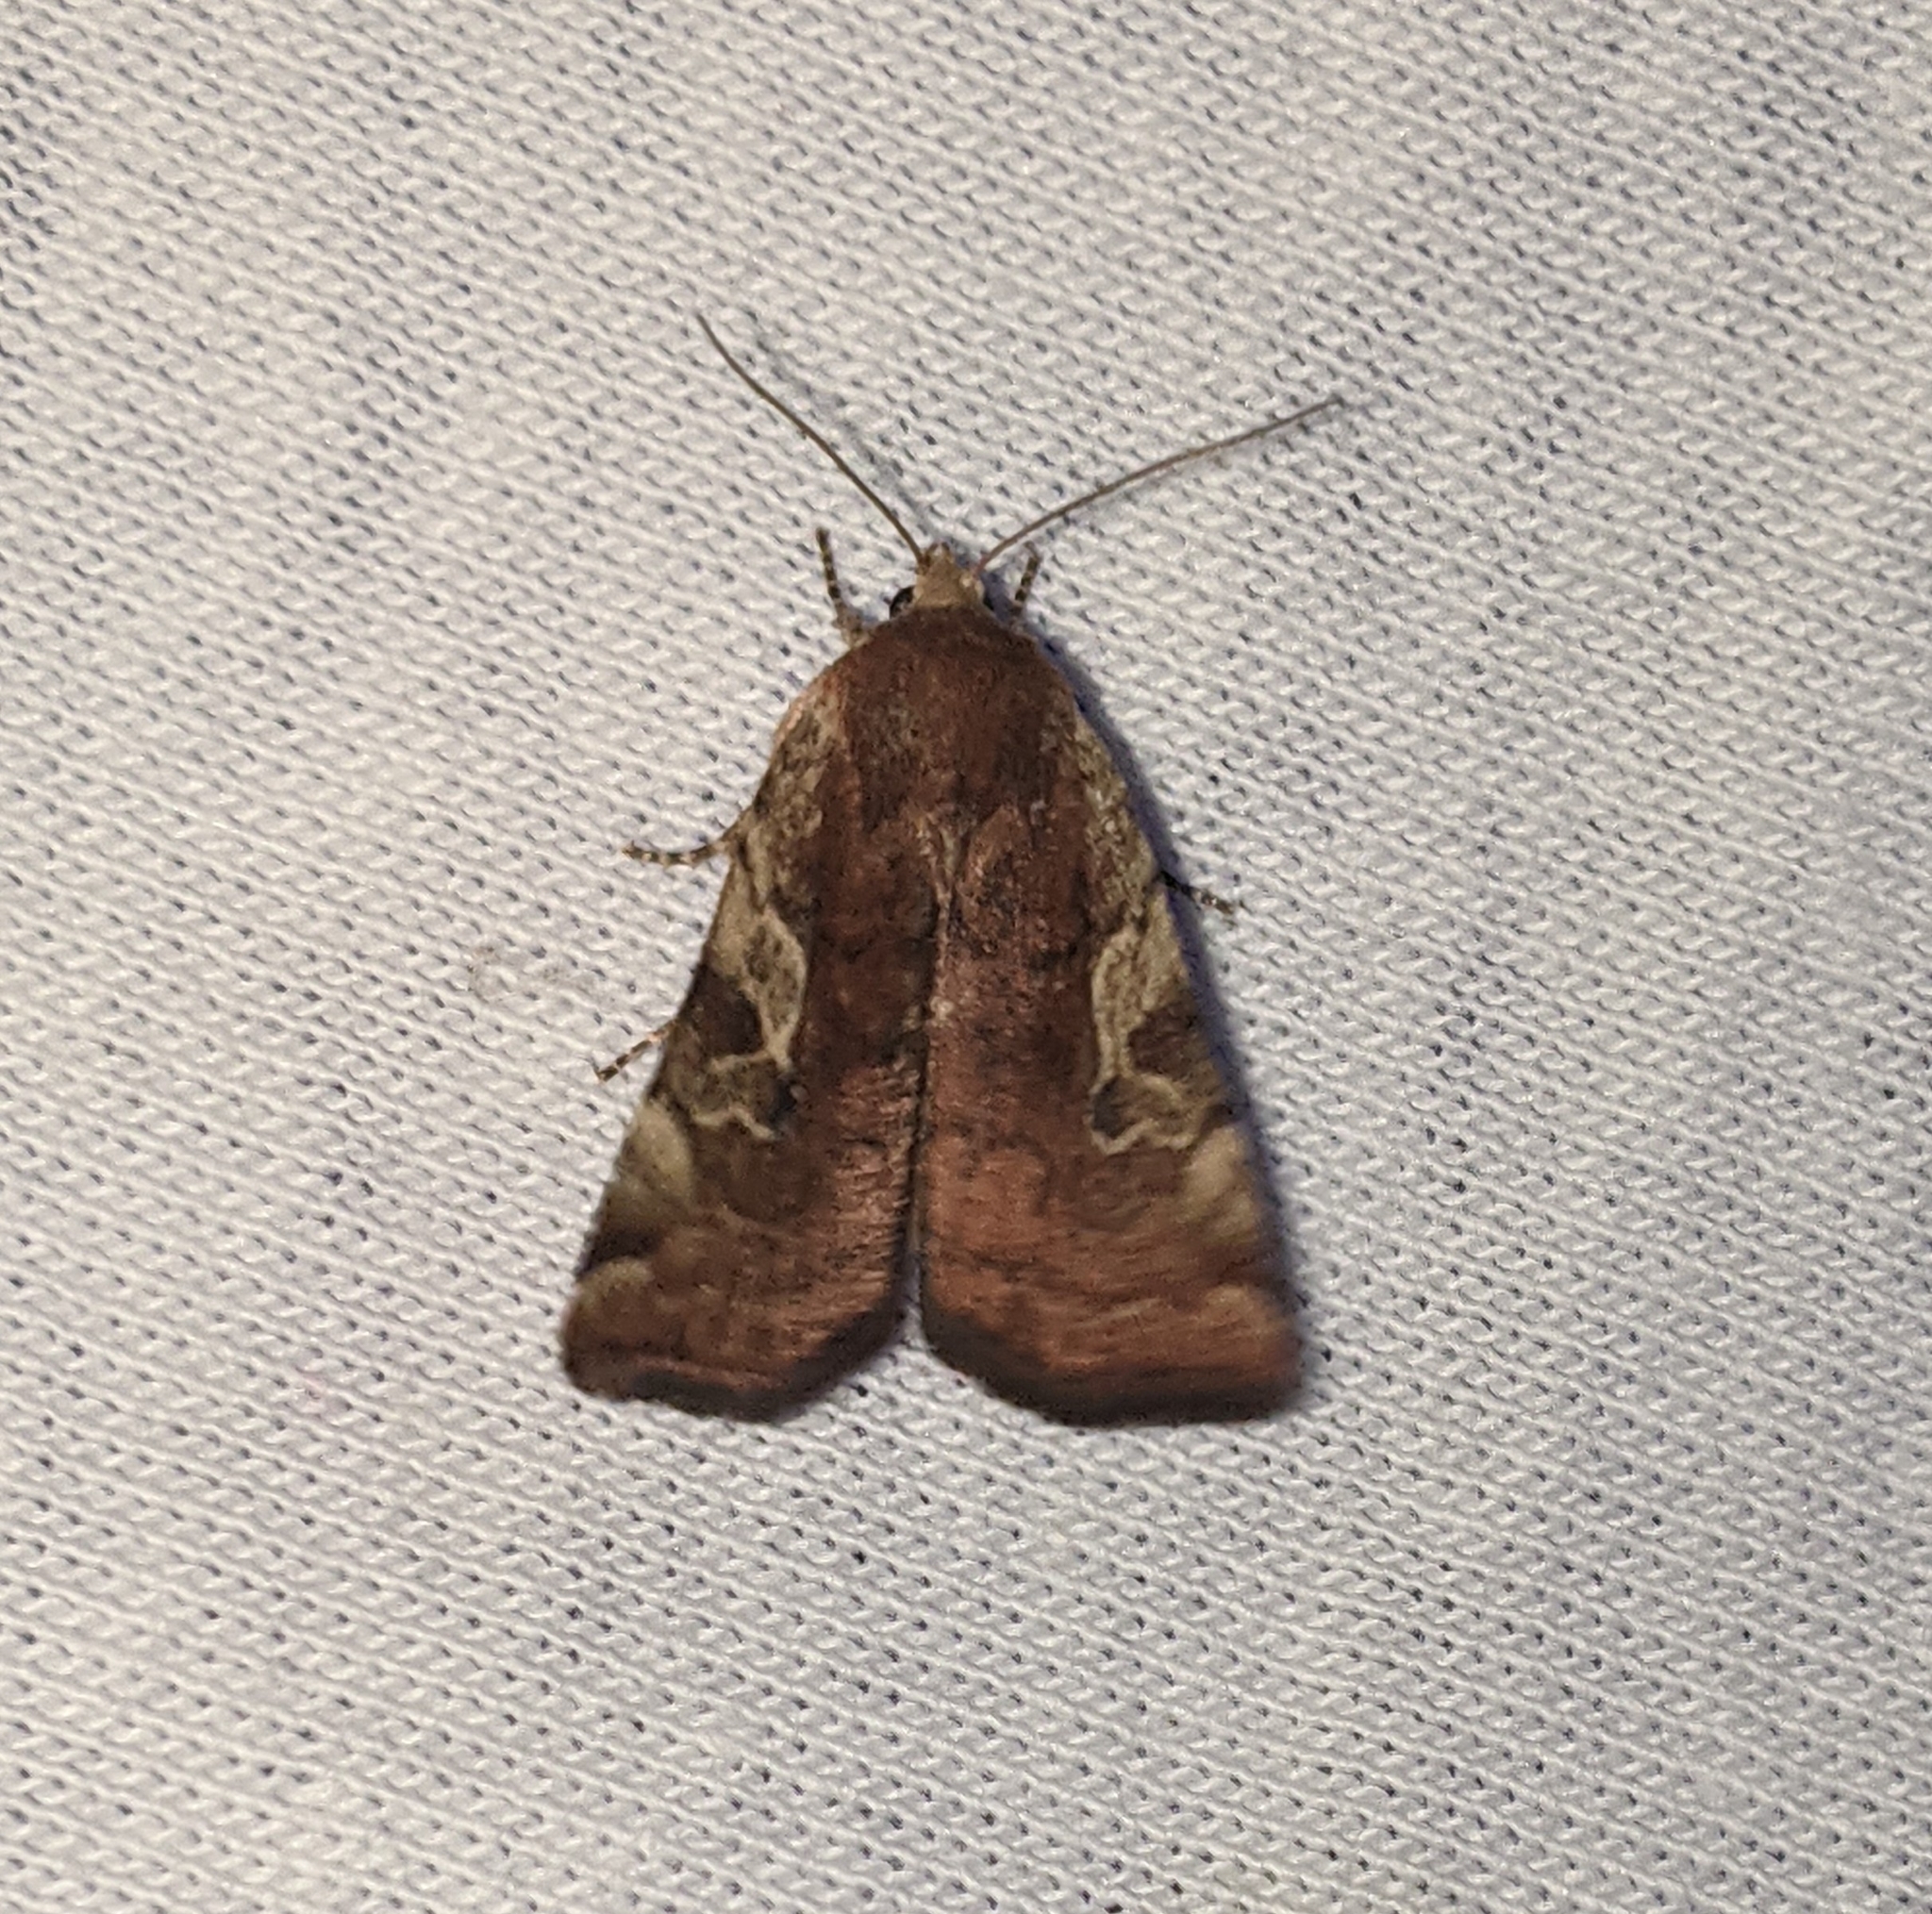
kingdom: Animalia
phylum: Arthropoda
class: Insecta
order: Lepidoptera
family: Noctuidae
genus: Cryptocala
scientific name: Cryptocala acadiensis
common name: Catocaline dart
